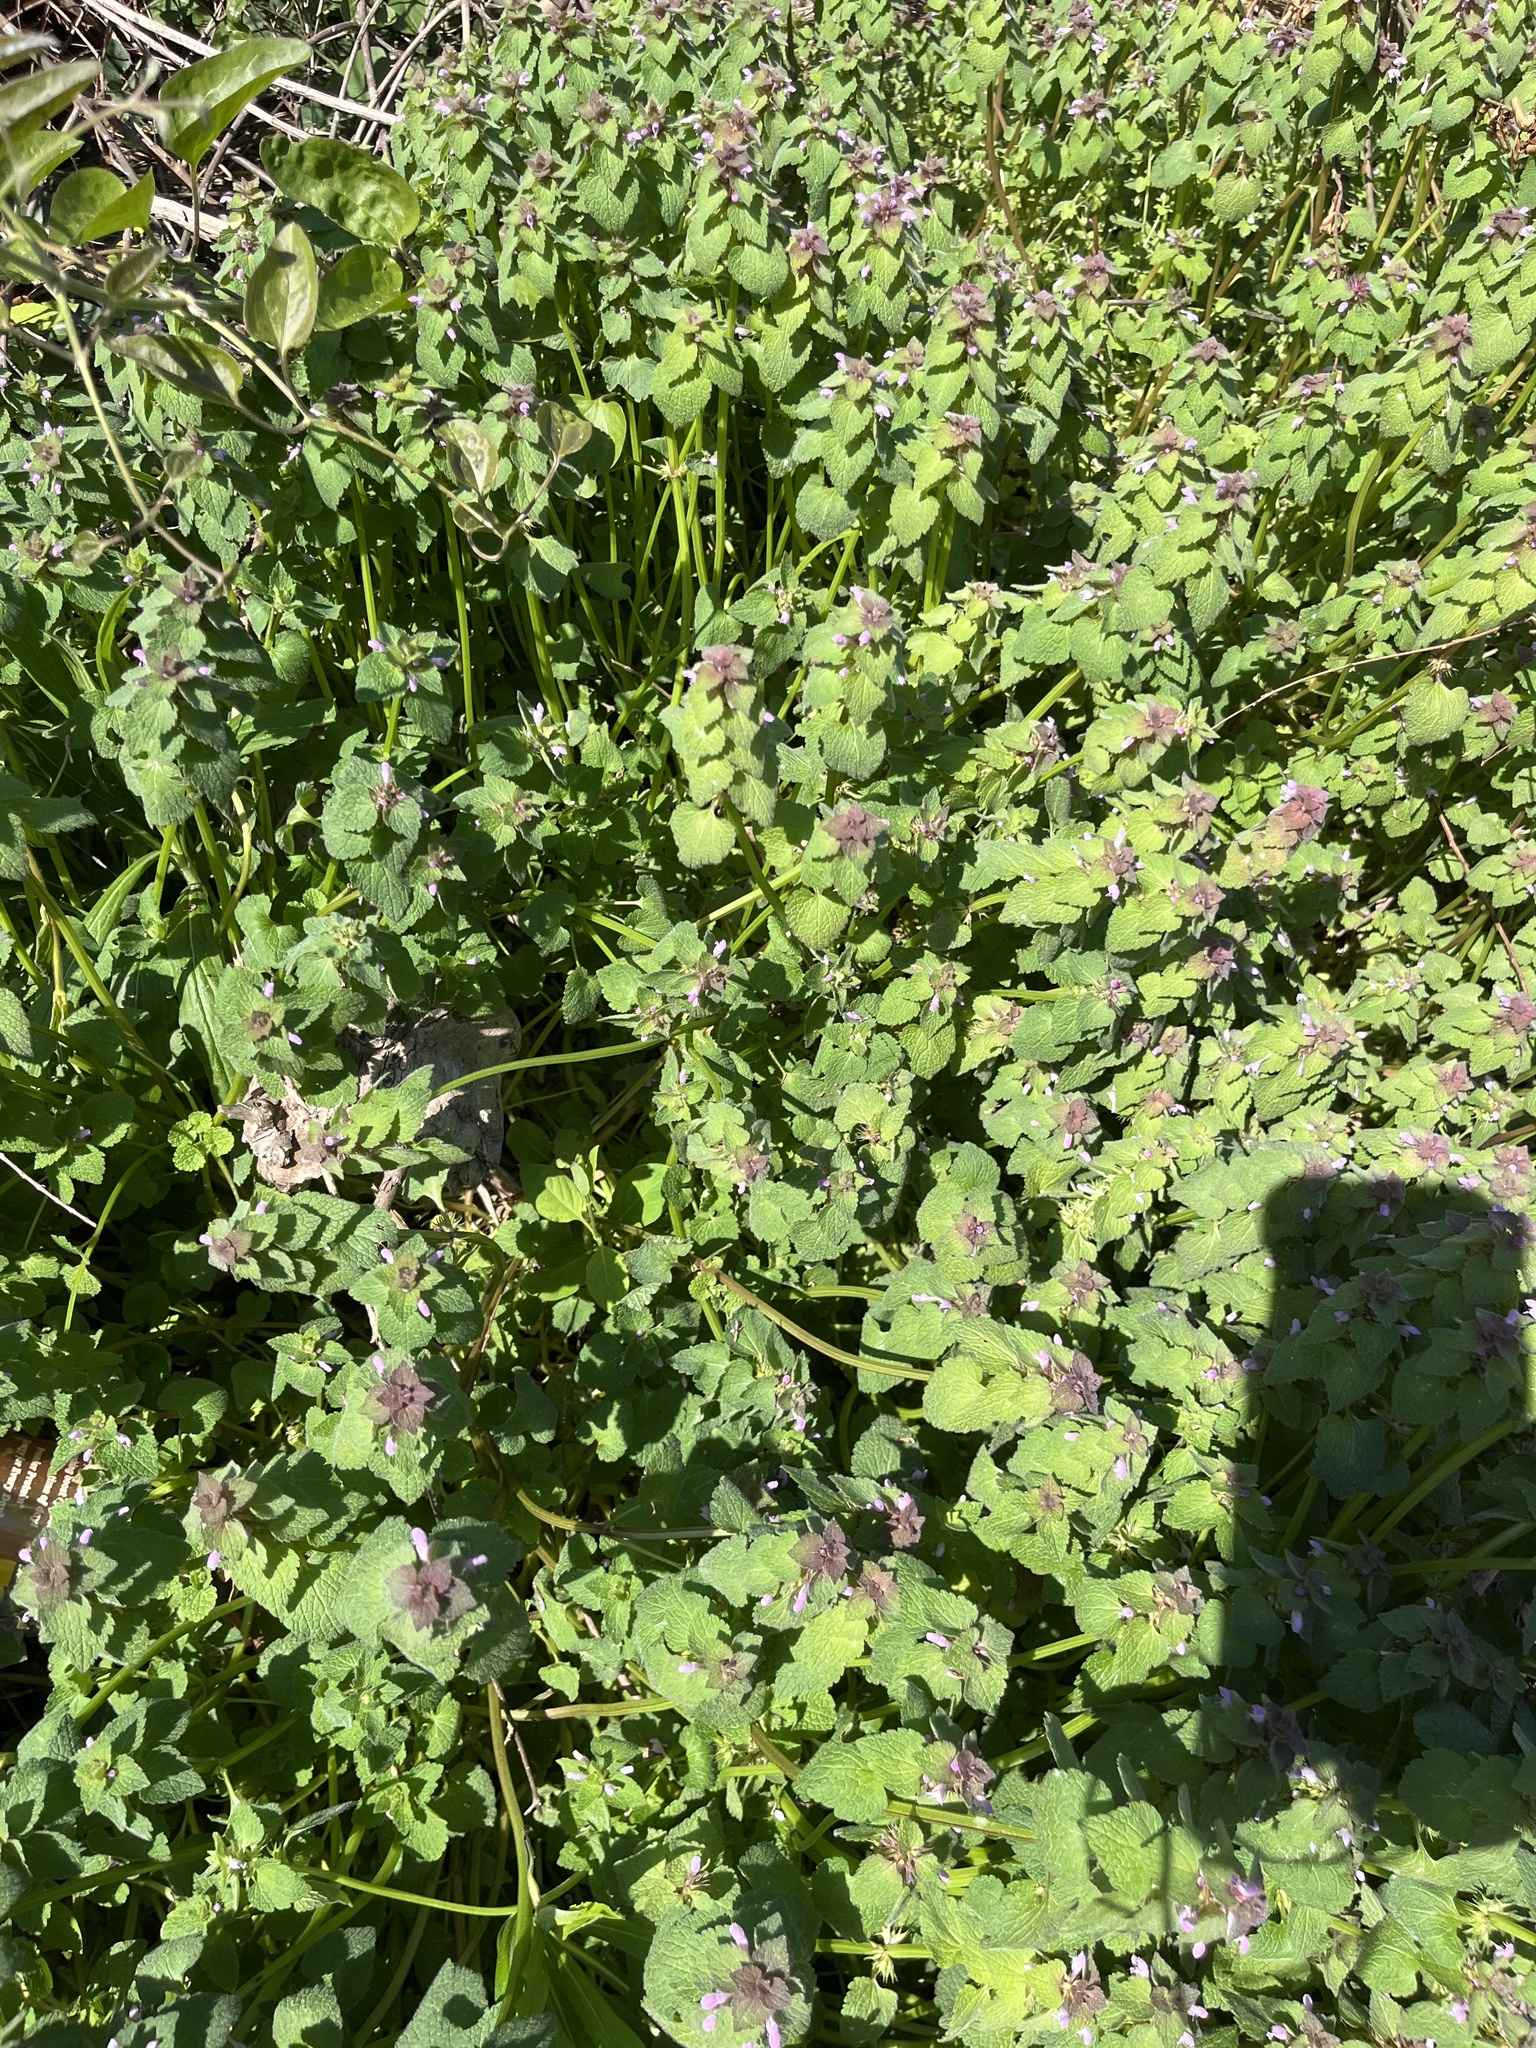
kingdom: Plantae
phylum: Tracheophyta
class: Magnoliopsida
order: Lamiales
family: Lamiaceae
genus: Lamium
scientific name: Lamium purpureum
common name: Red dead-nettle
